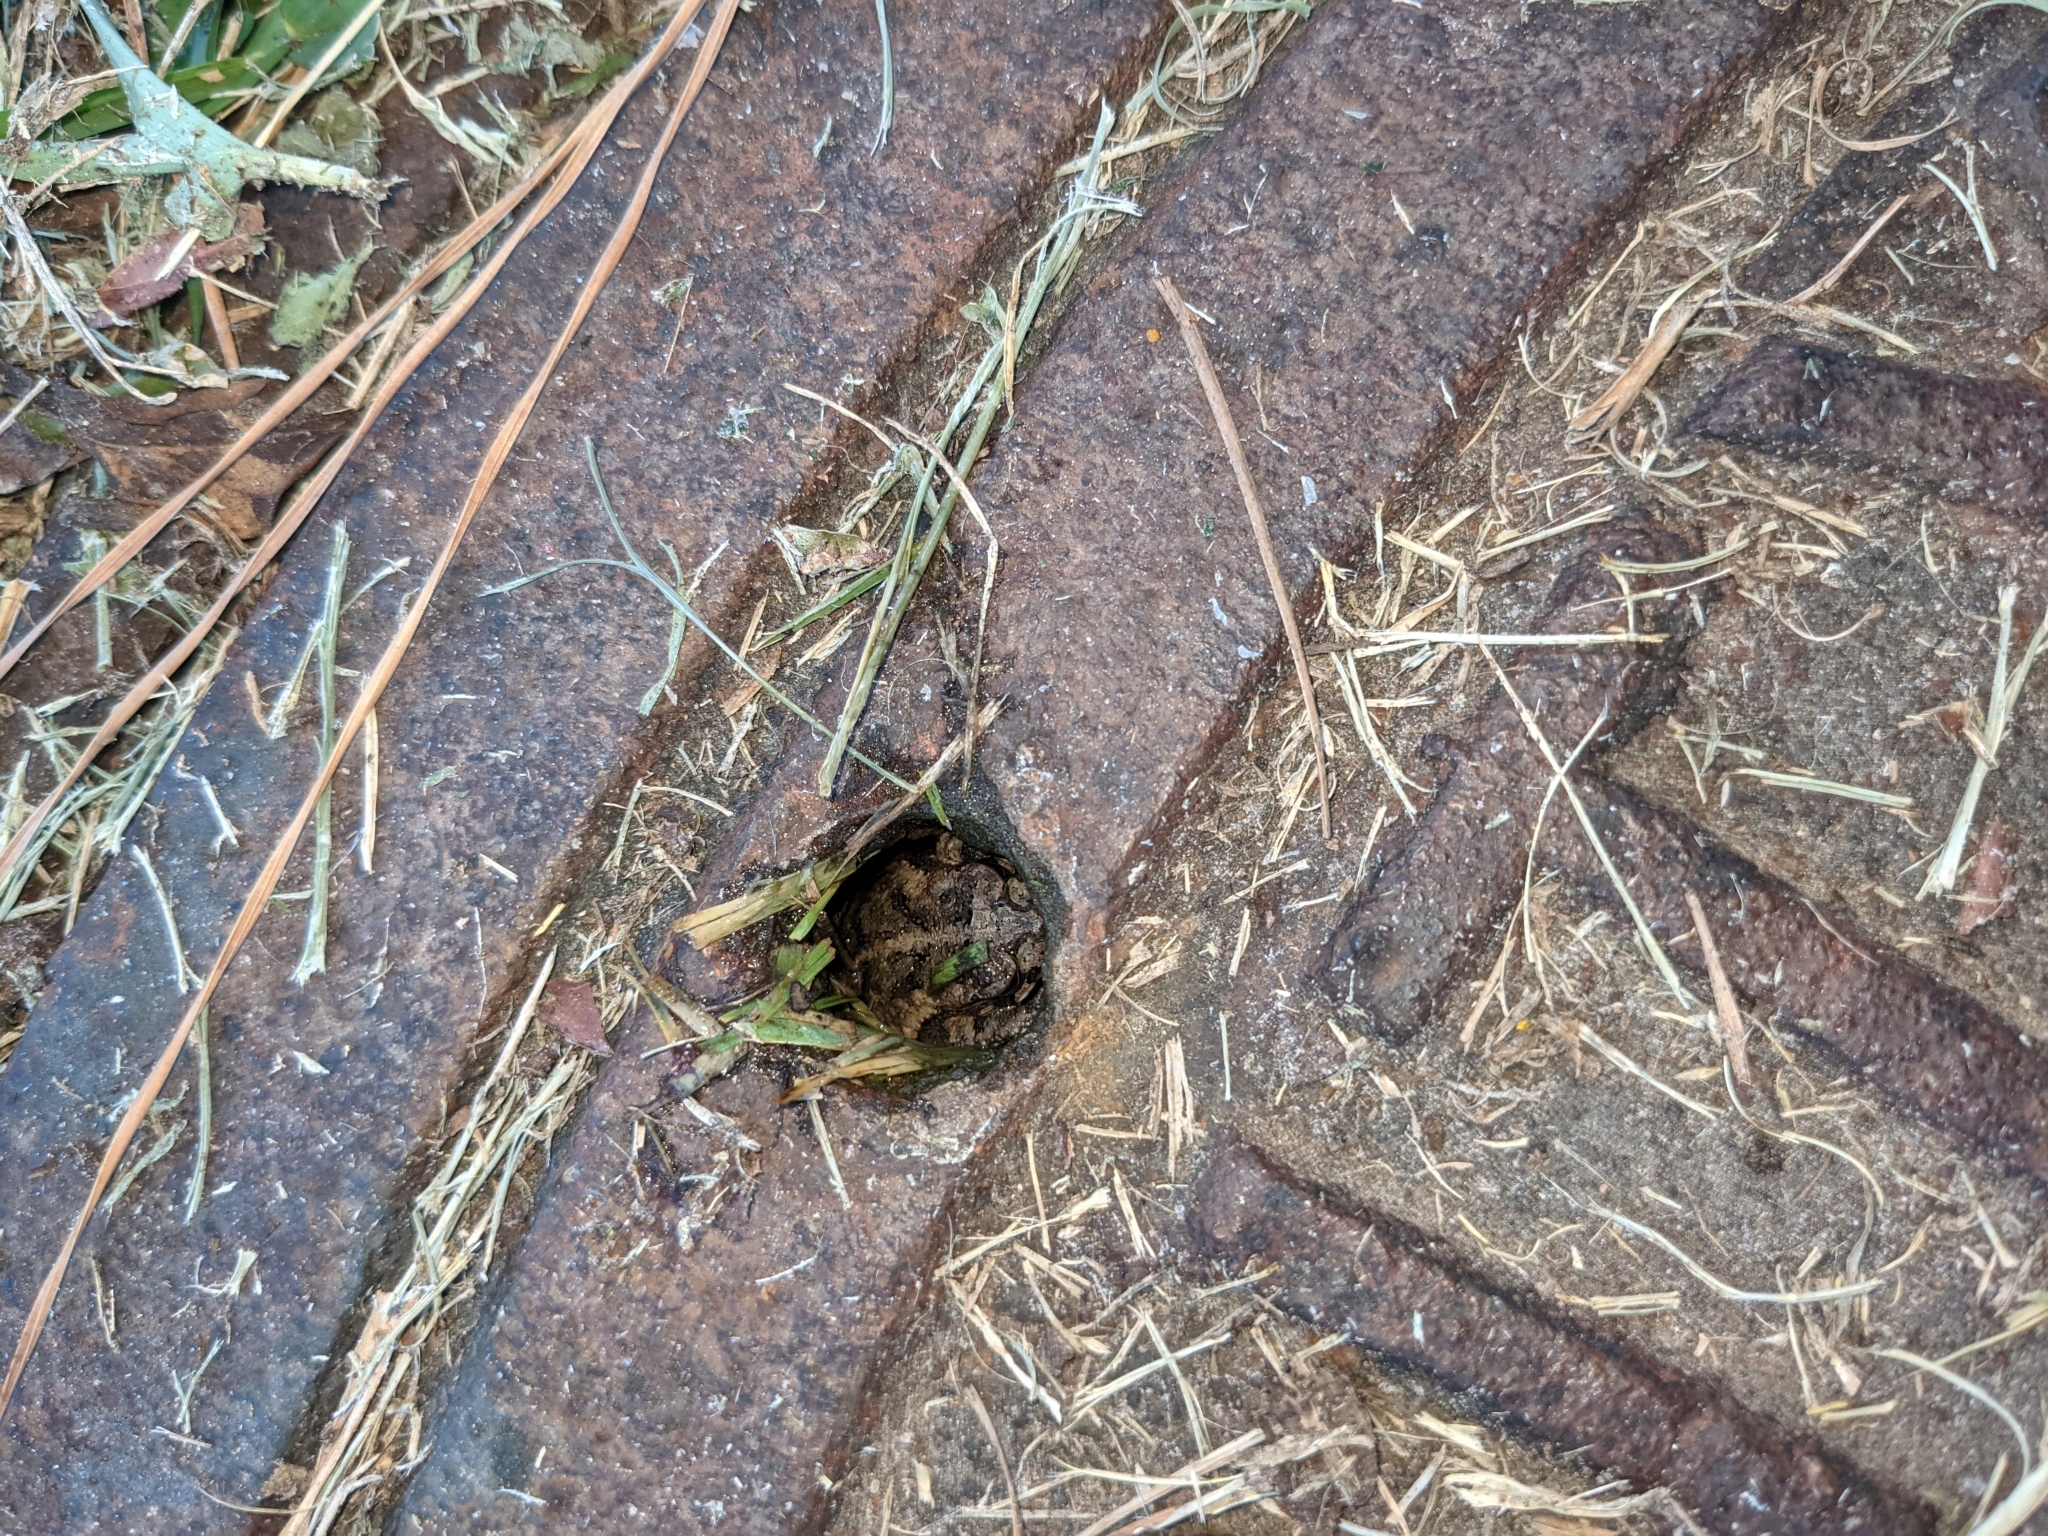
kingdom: Animalia
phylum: Chordata
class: Amphibia
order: Anura
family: Bufonidae
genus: Incilius
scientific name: Incilius nebulifer
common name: Gulf coast toad
